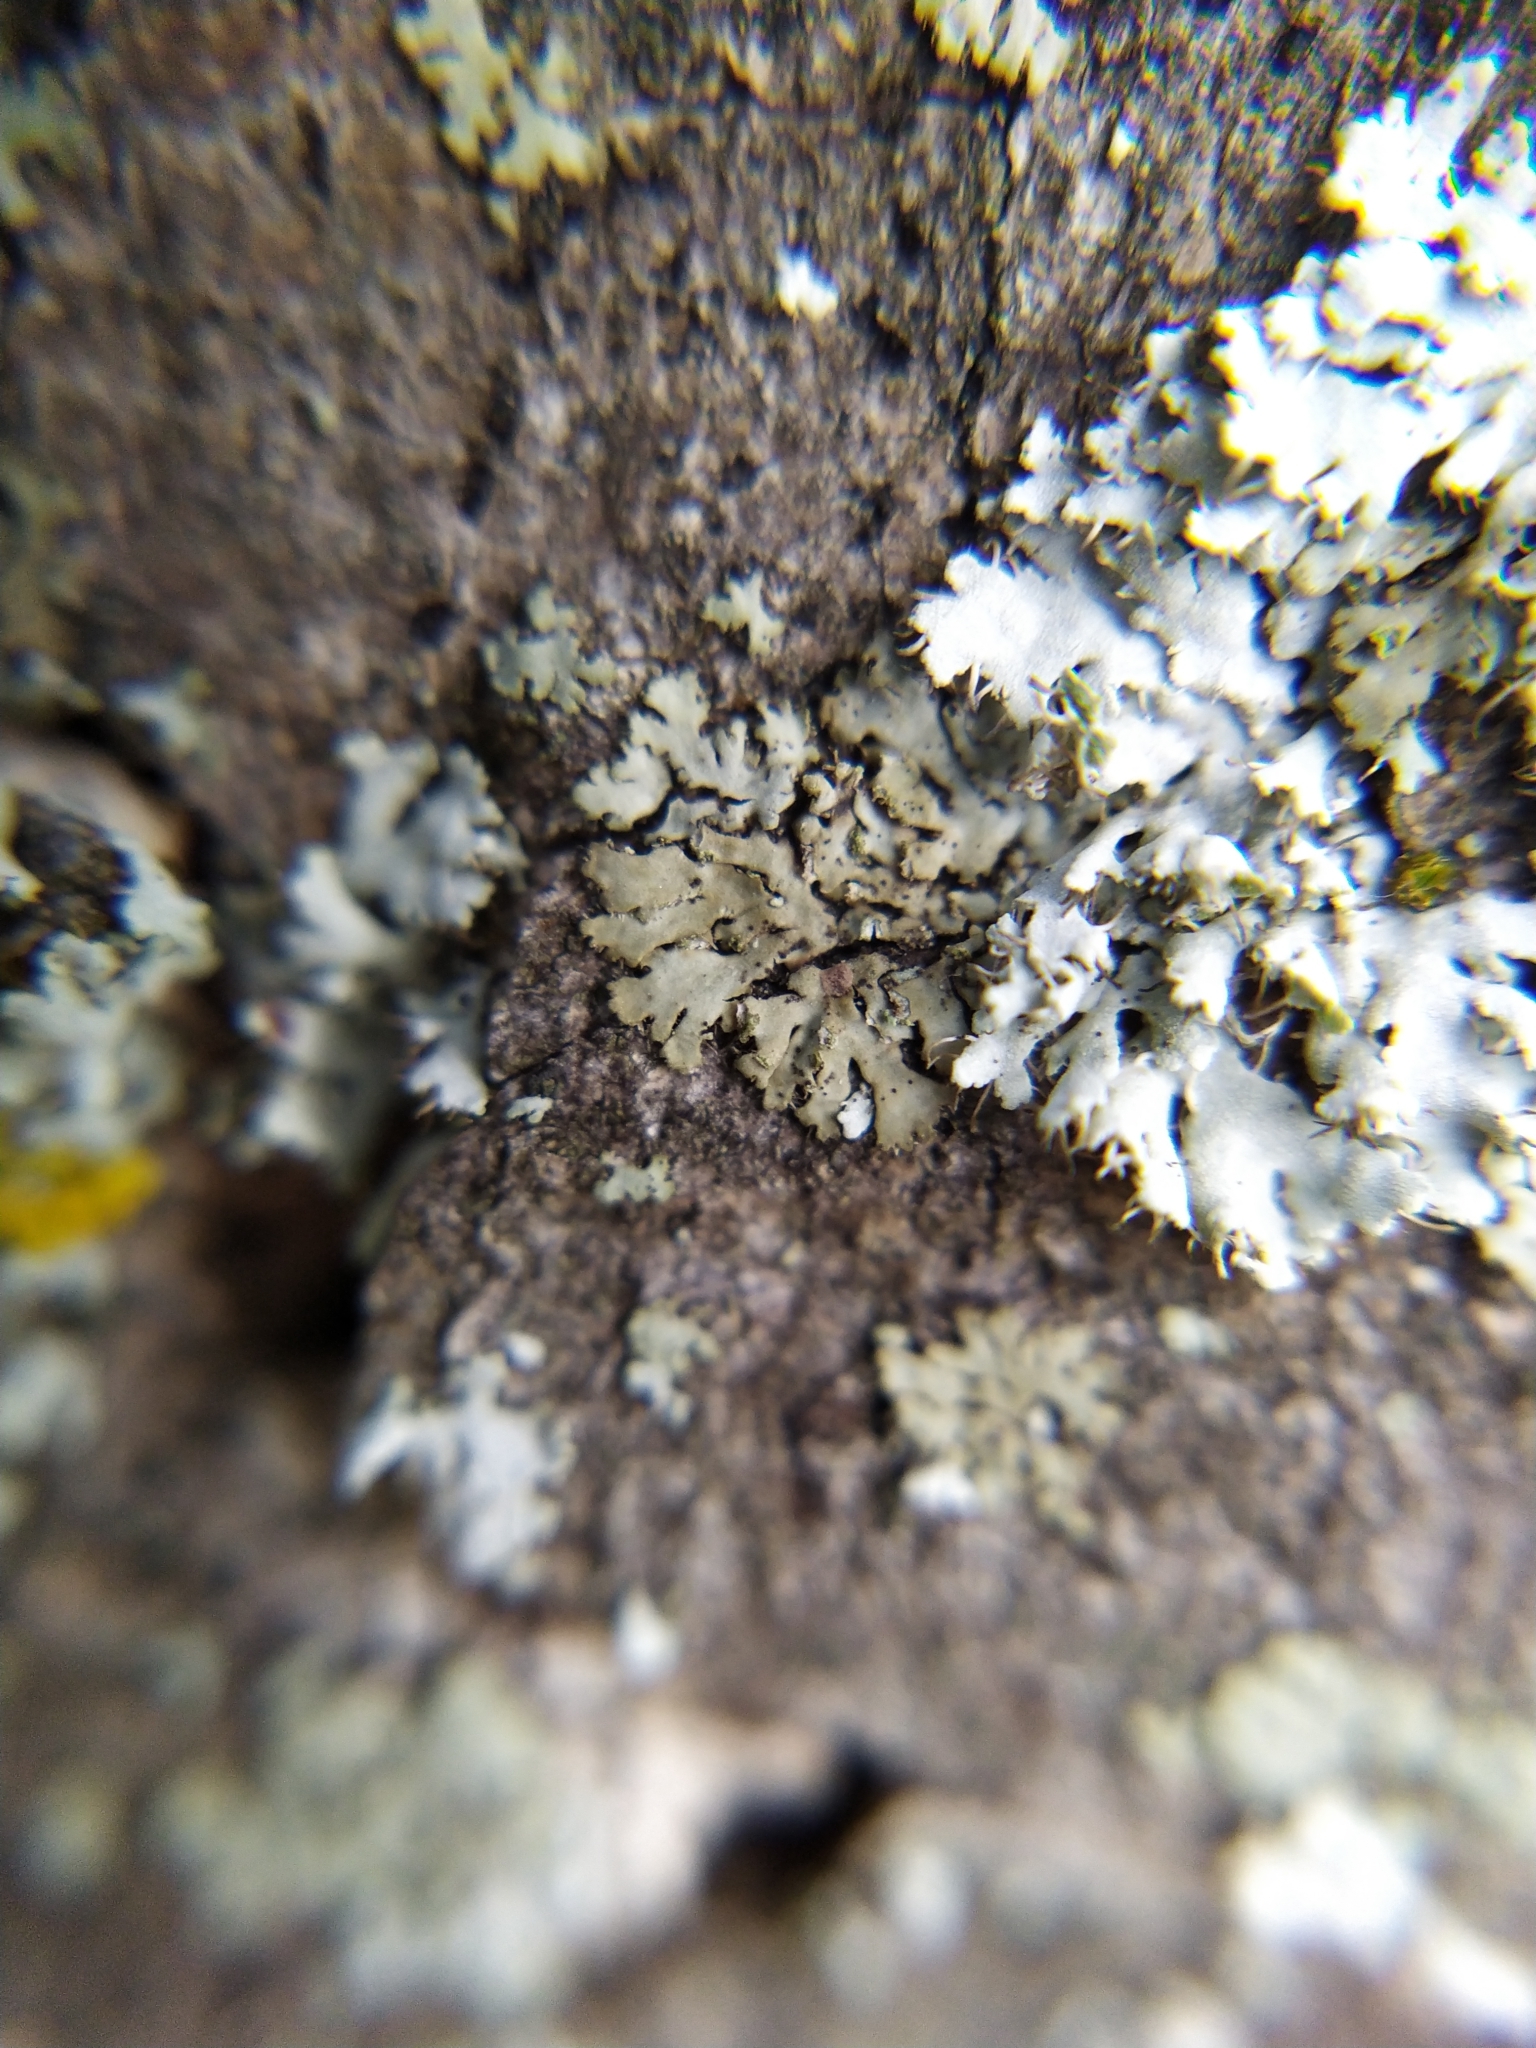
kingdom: Fungi
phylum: Ascomycota
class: Lecanoromycetes
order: Caliciales
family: Physciaceae
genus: Phaeophyscia
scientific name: Phaeophyscia orbicularis
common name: Mealy shadow lichen
